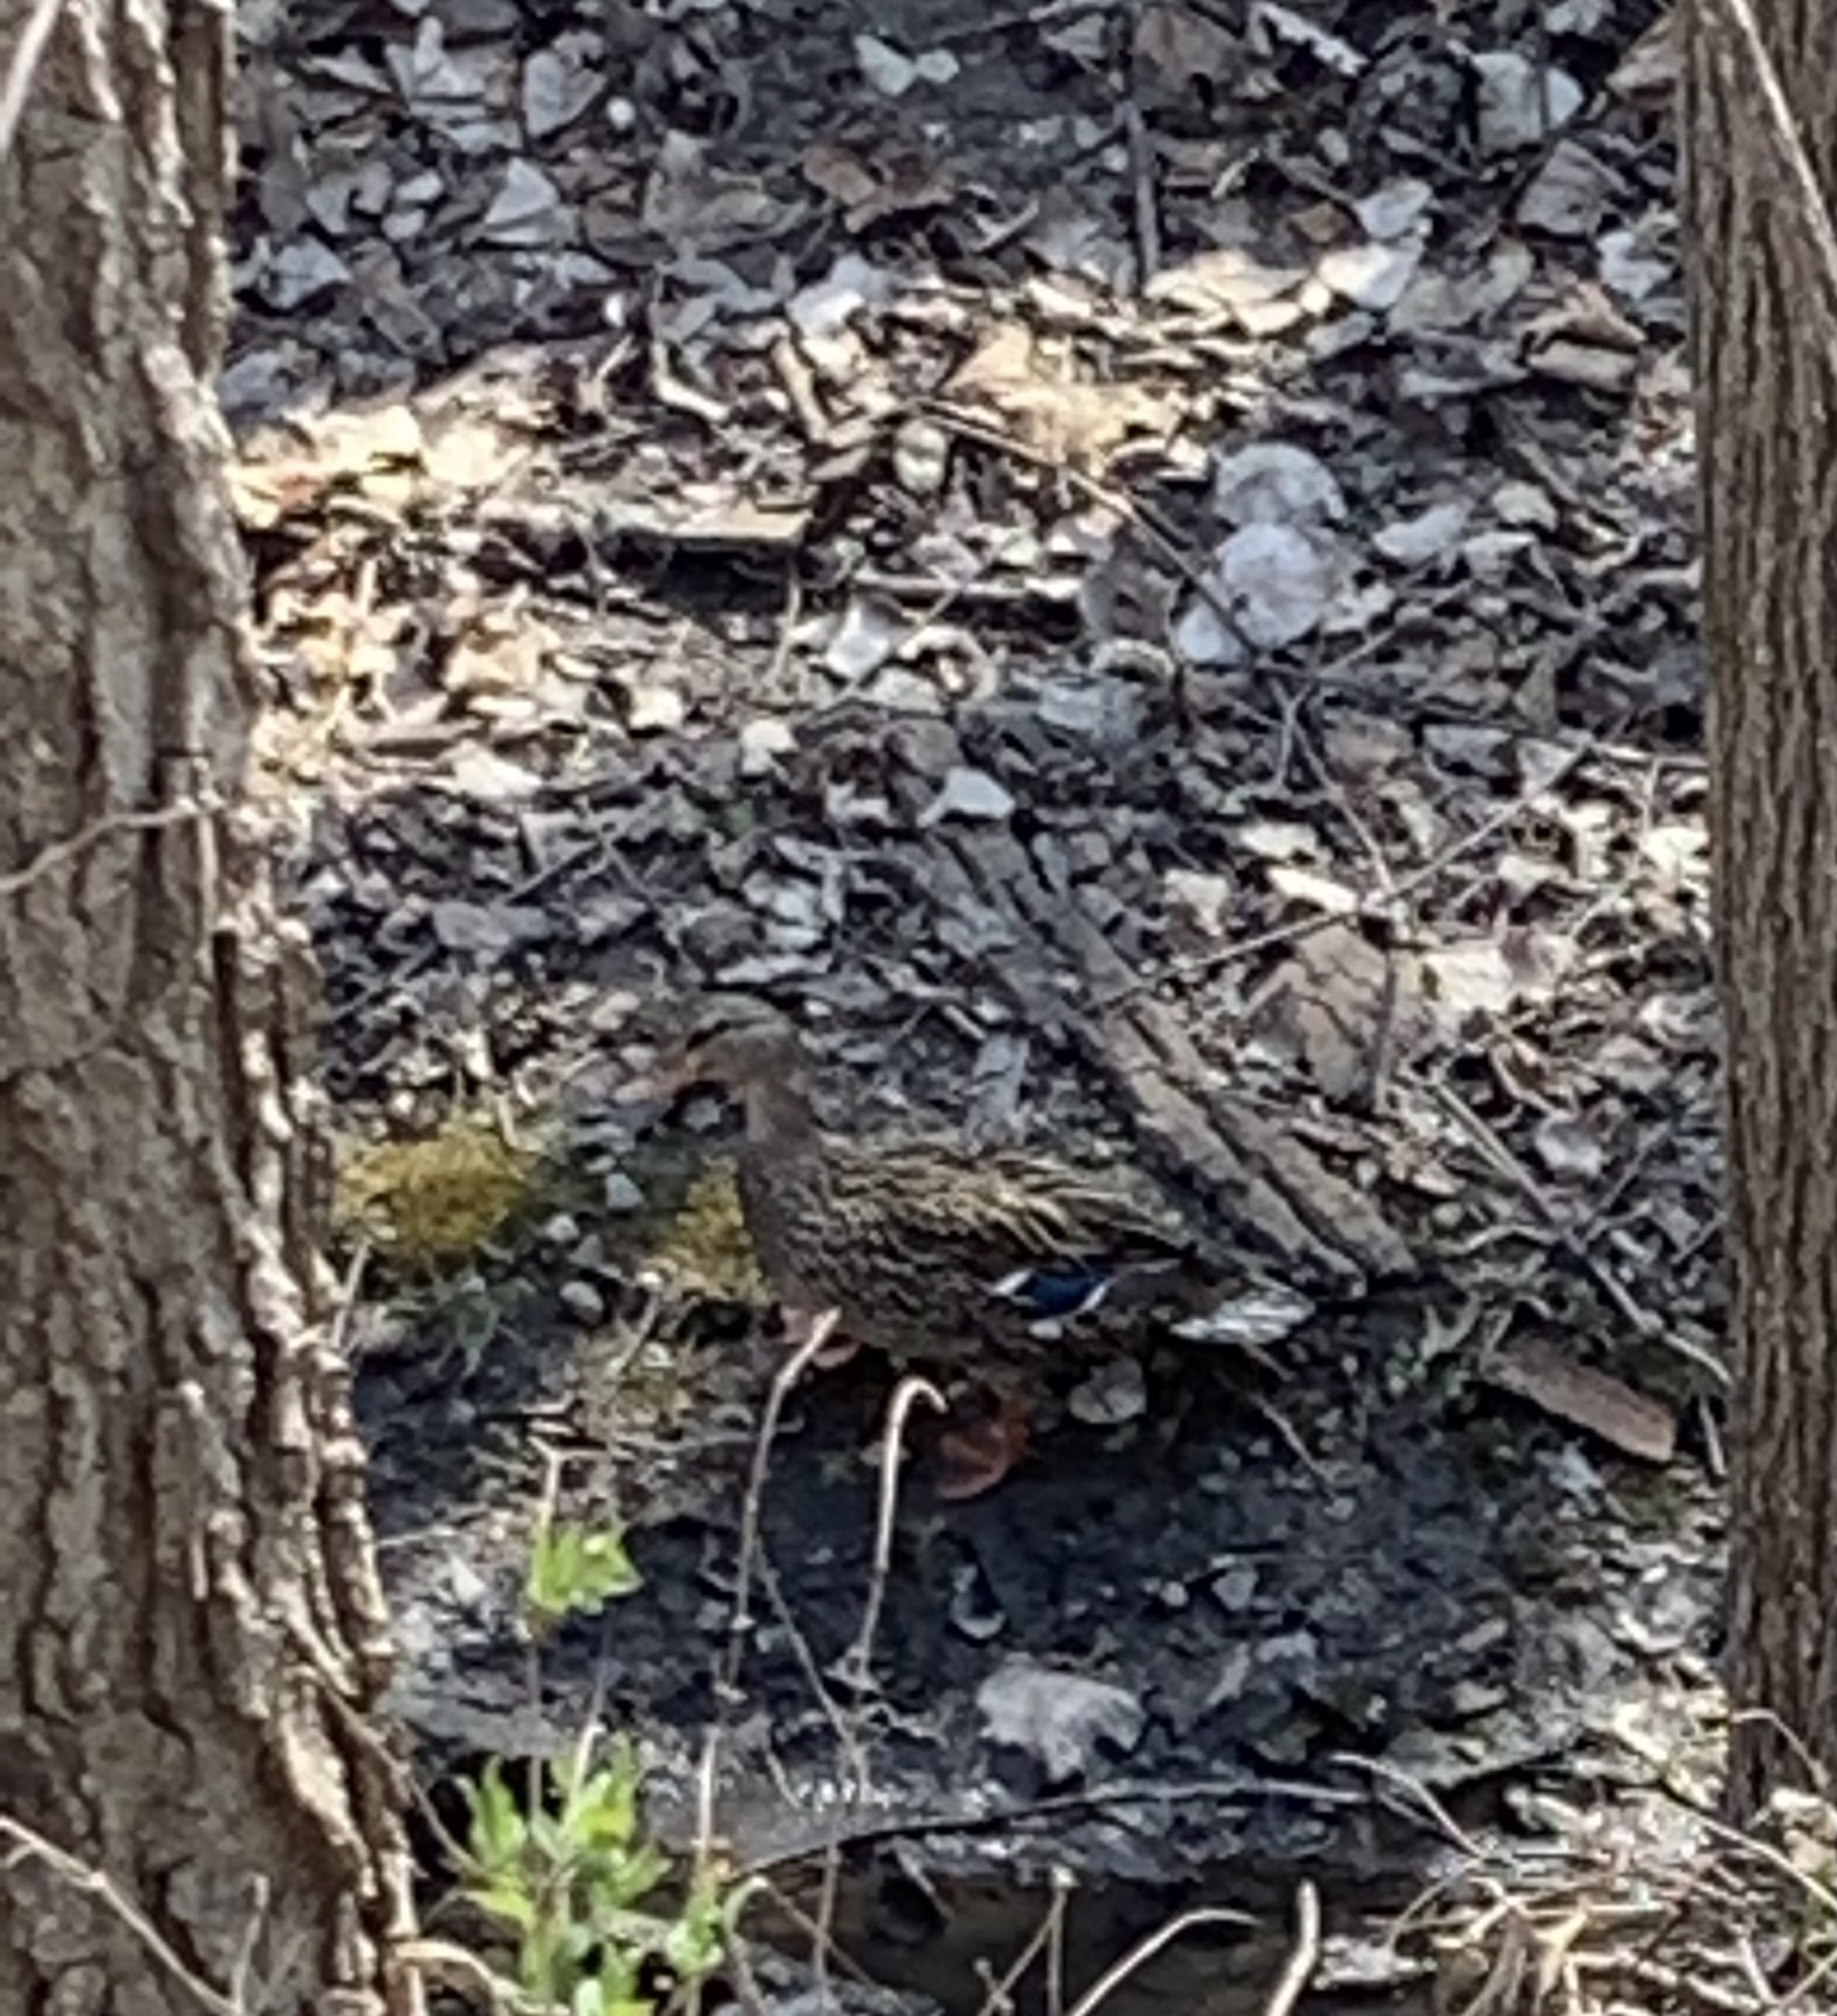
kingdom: Animalia
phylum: Chordata
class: Aves
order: Anseriformes
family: Anatidae
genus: Anas
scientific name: Anas platyrhynchos
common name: Mallard
